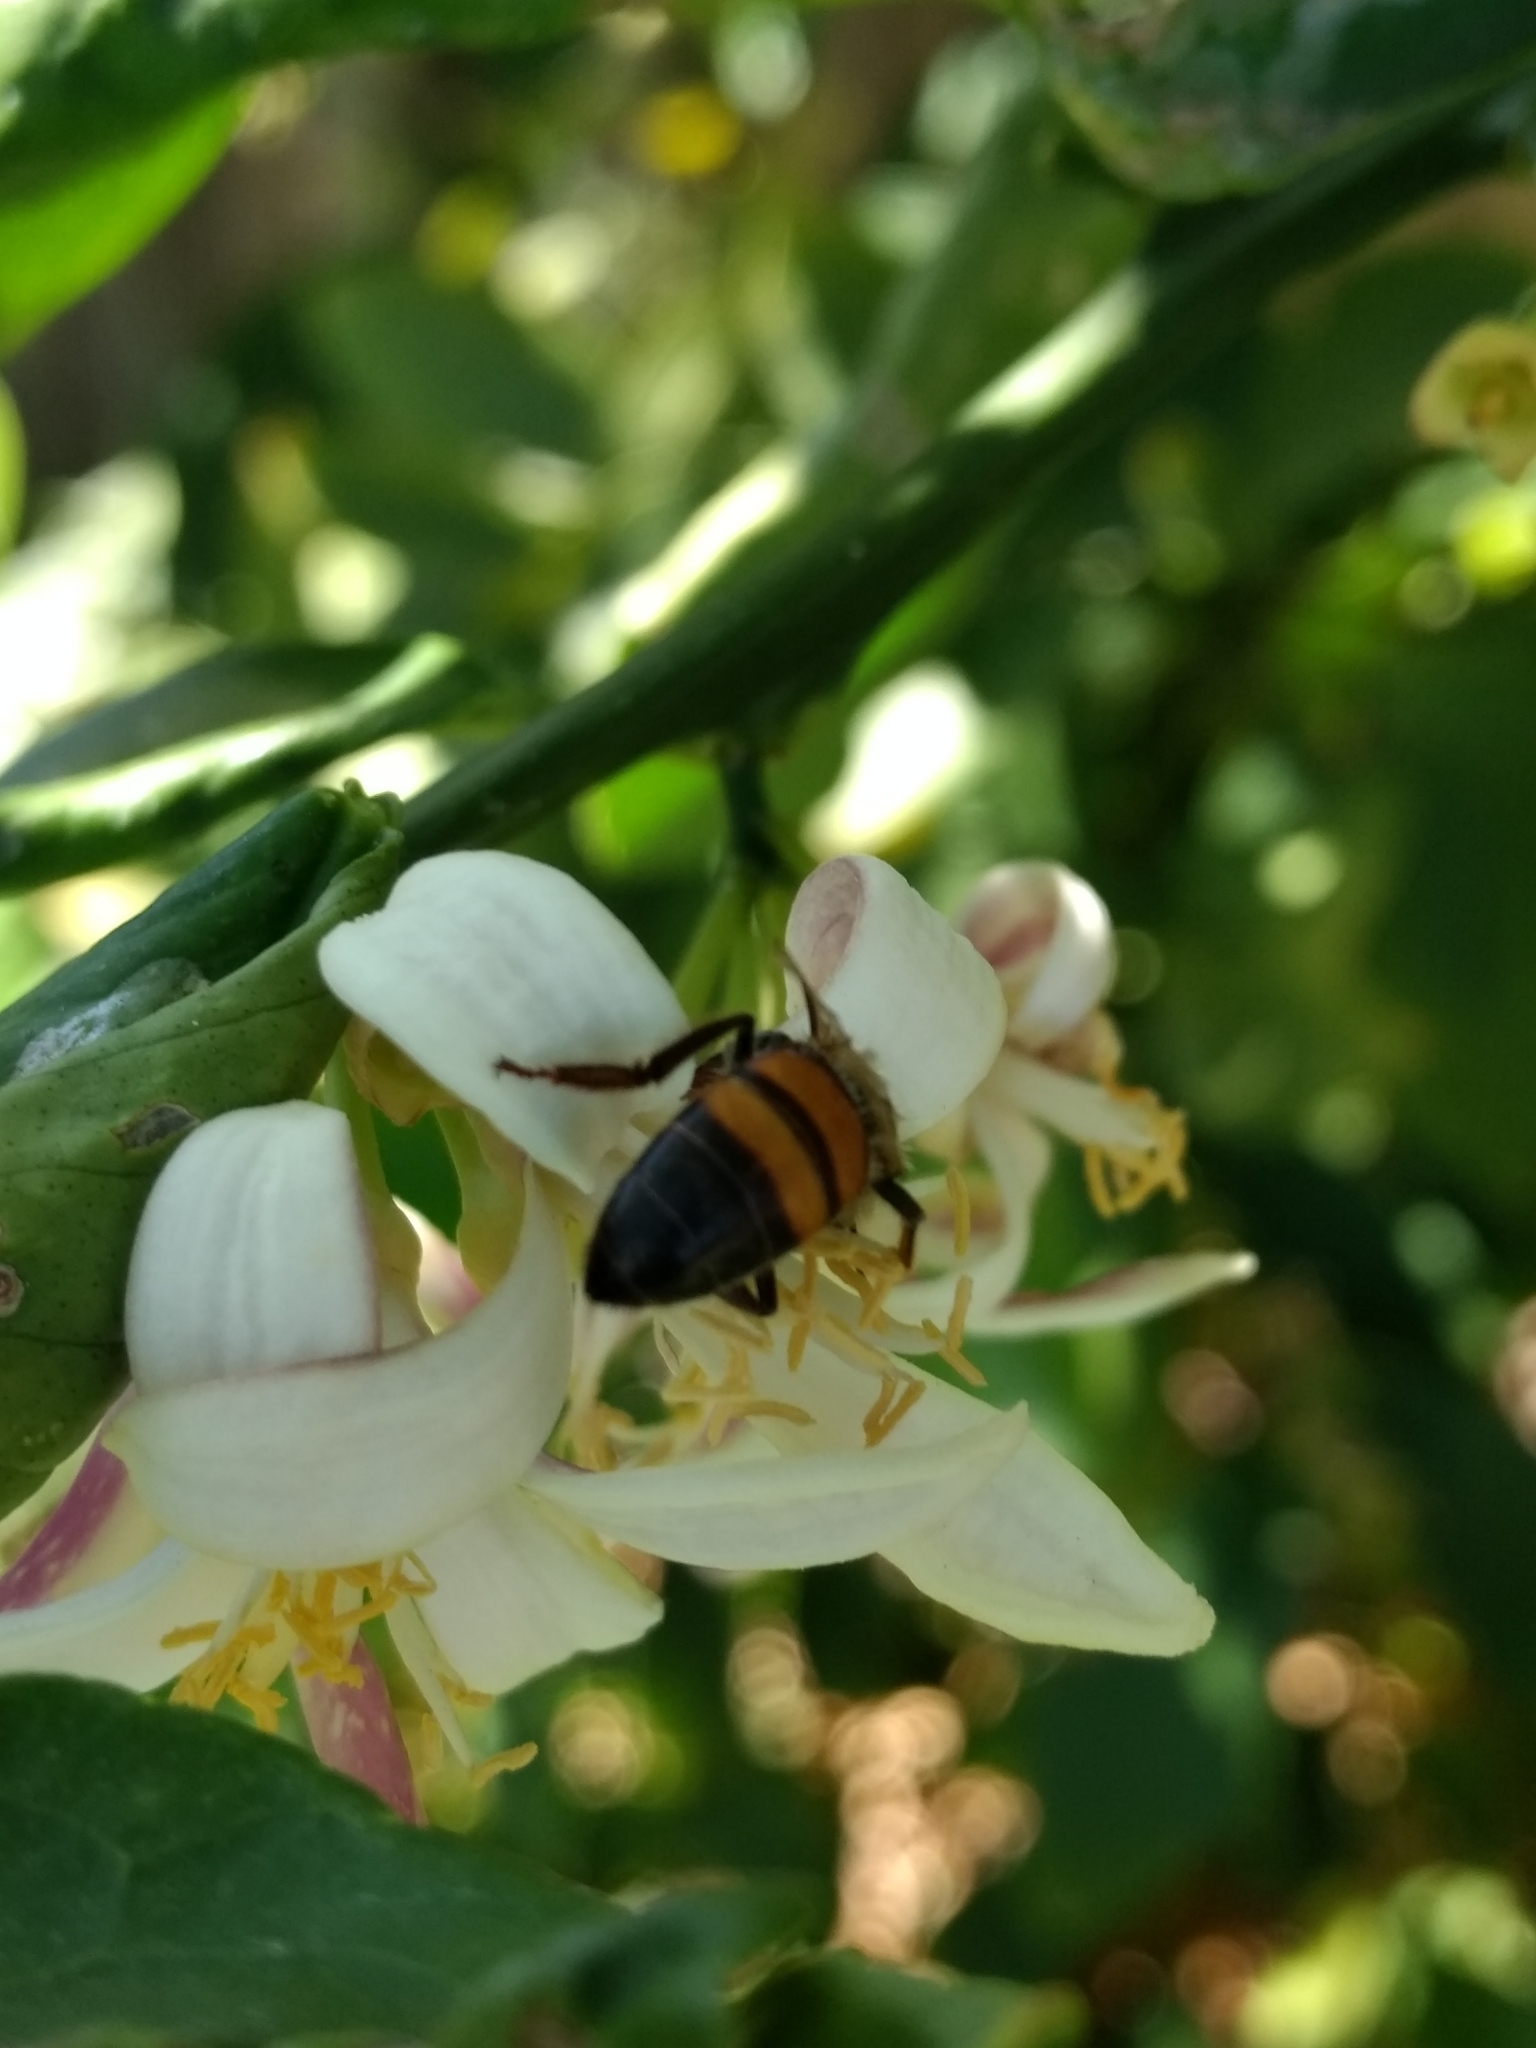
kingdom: Animalia
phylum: Arthropoda
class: Insecta
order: Hymenoptera
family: Apidae
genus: Apis
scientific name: Apis mellifera
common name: Honey bee
